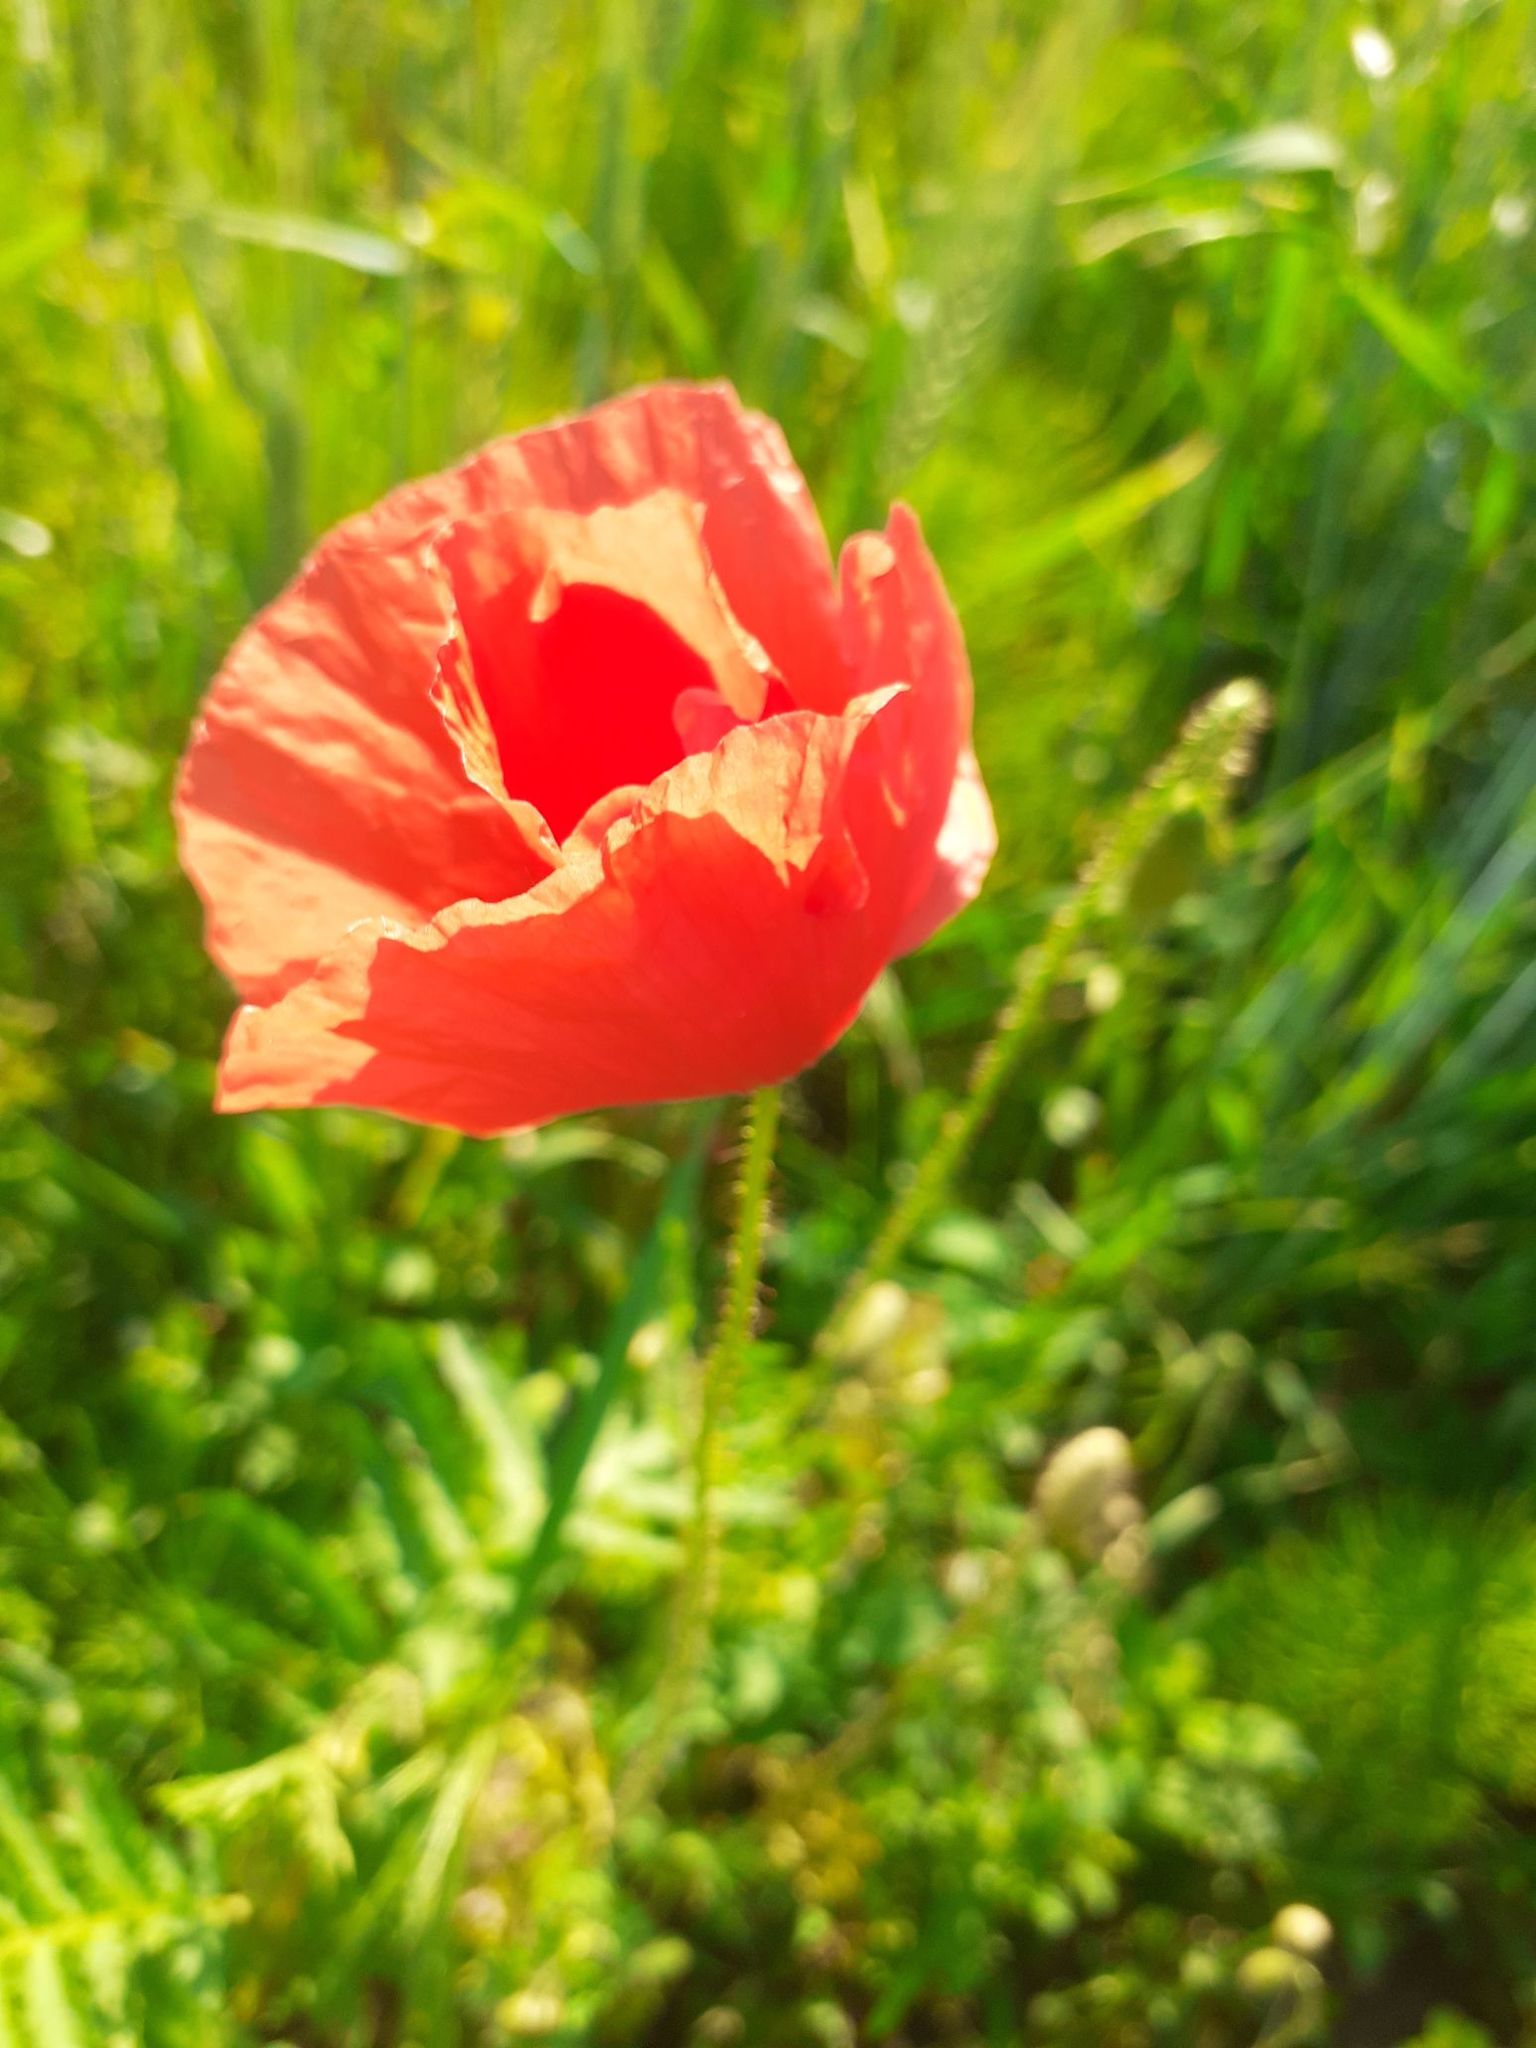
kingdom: Plantae
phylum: Tracheophyta
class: Magnoliopsida
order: Ranunculales
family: Papaveraceae
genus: Papaver
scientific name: Papaver rhoeas
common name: Corn poppy
